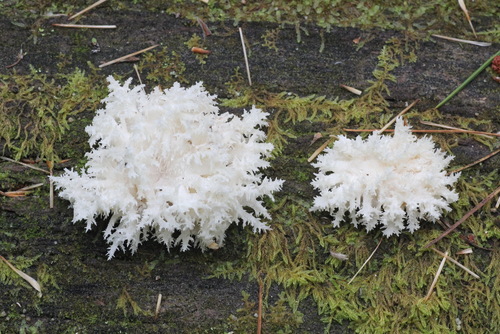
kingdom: Fungi
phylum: Basidiomycota
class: Agaricomycetes
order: Russulales
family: Hericiaceae
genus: Hericium
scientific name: Hericium coralloides
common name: Coral tooth
